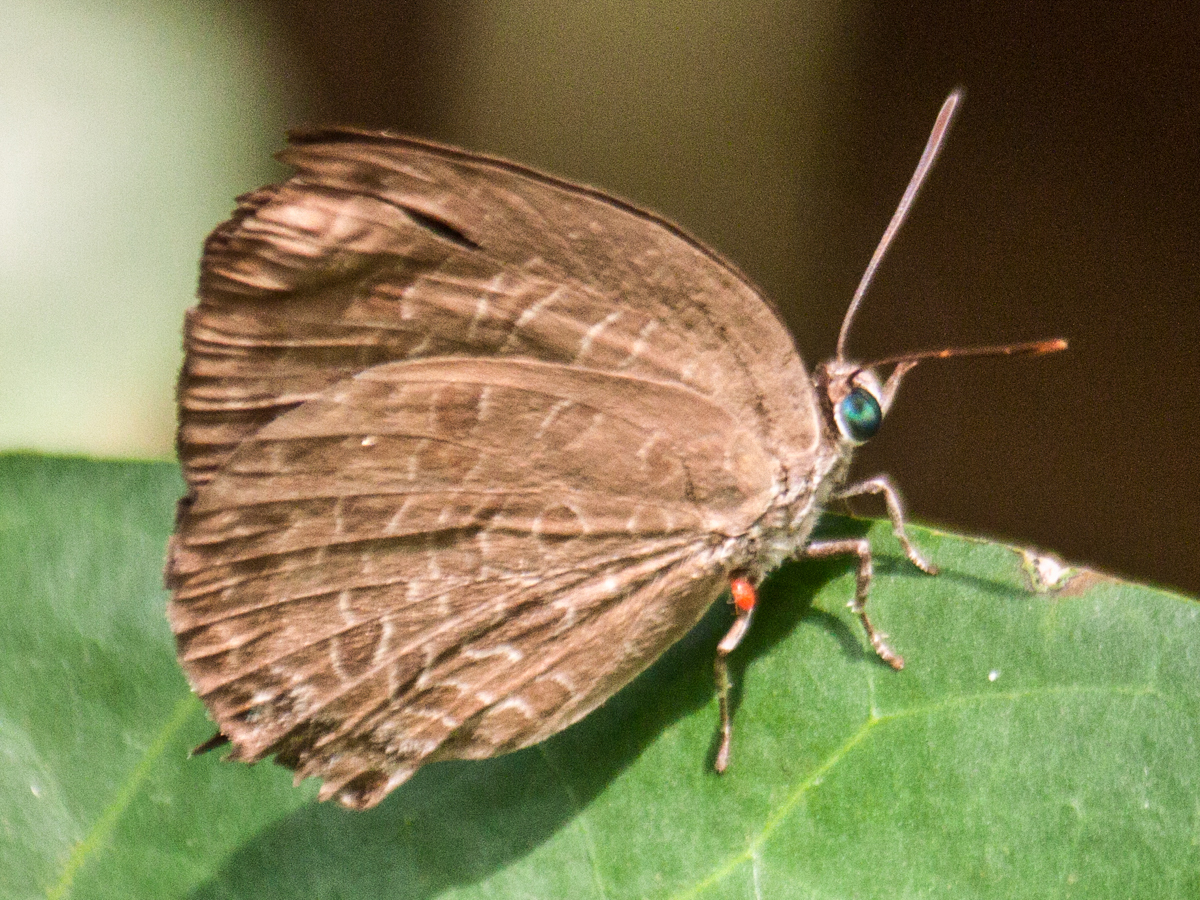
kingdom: Animalia
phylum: Arthropoda
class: Insecta
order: Lepidoptera
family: Lycaenidae
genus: Arhopala
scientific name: Arhopala agrata
